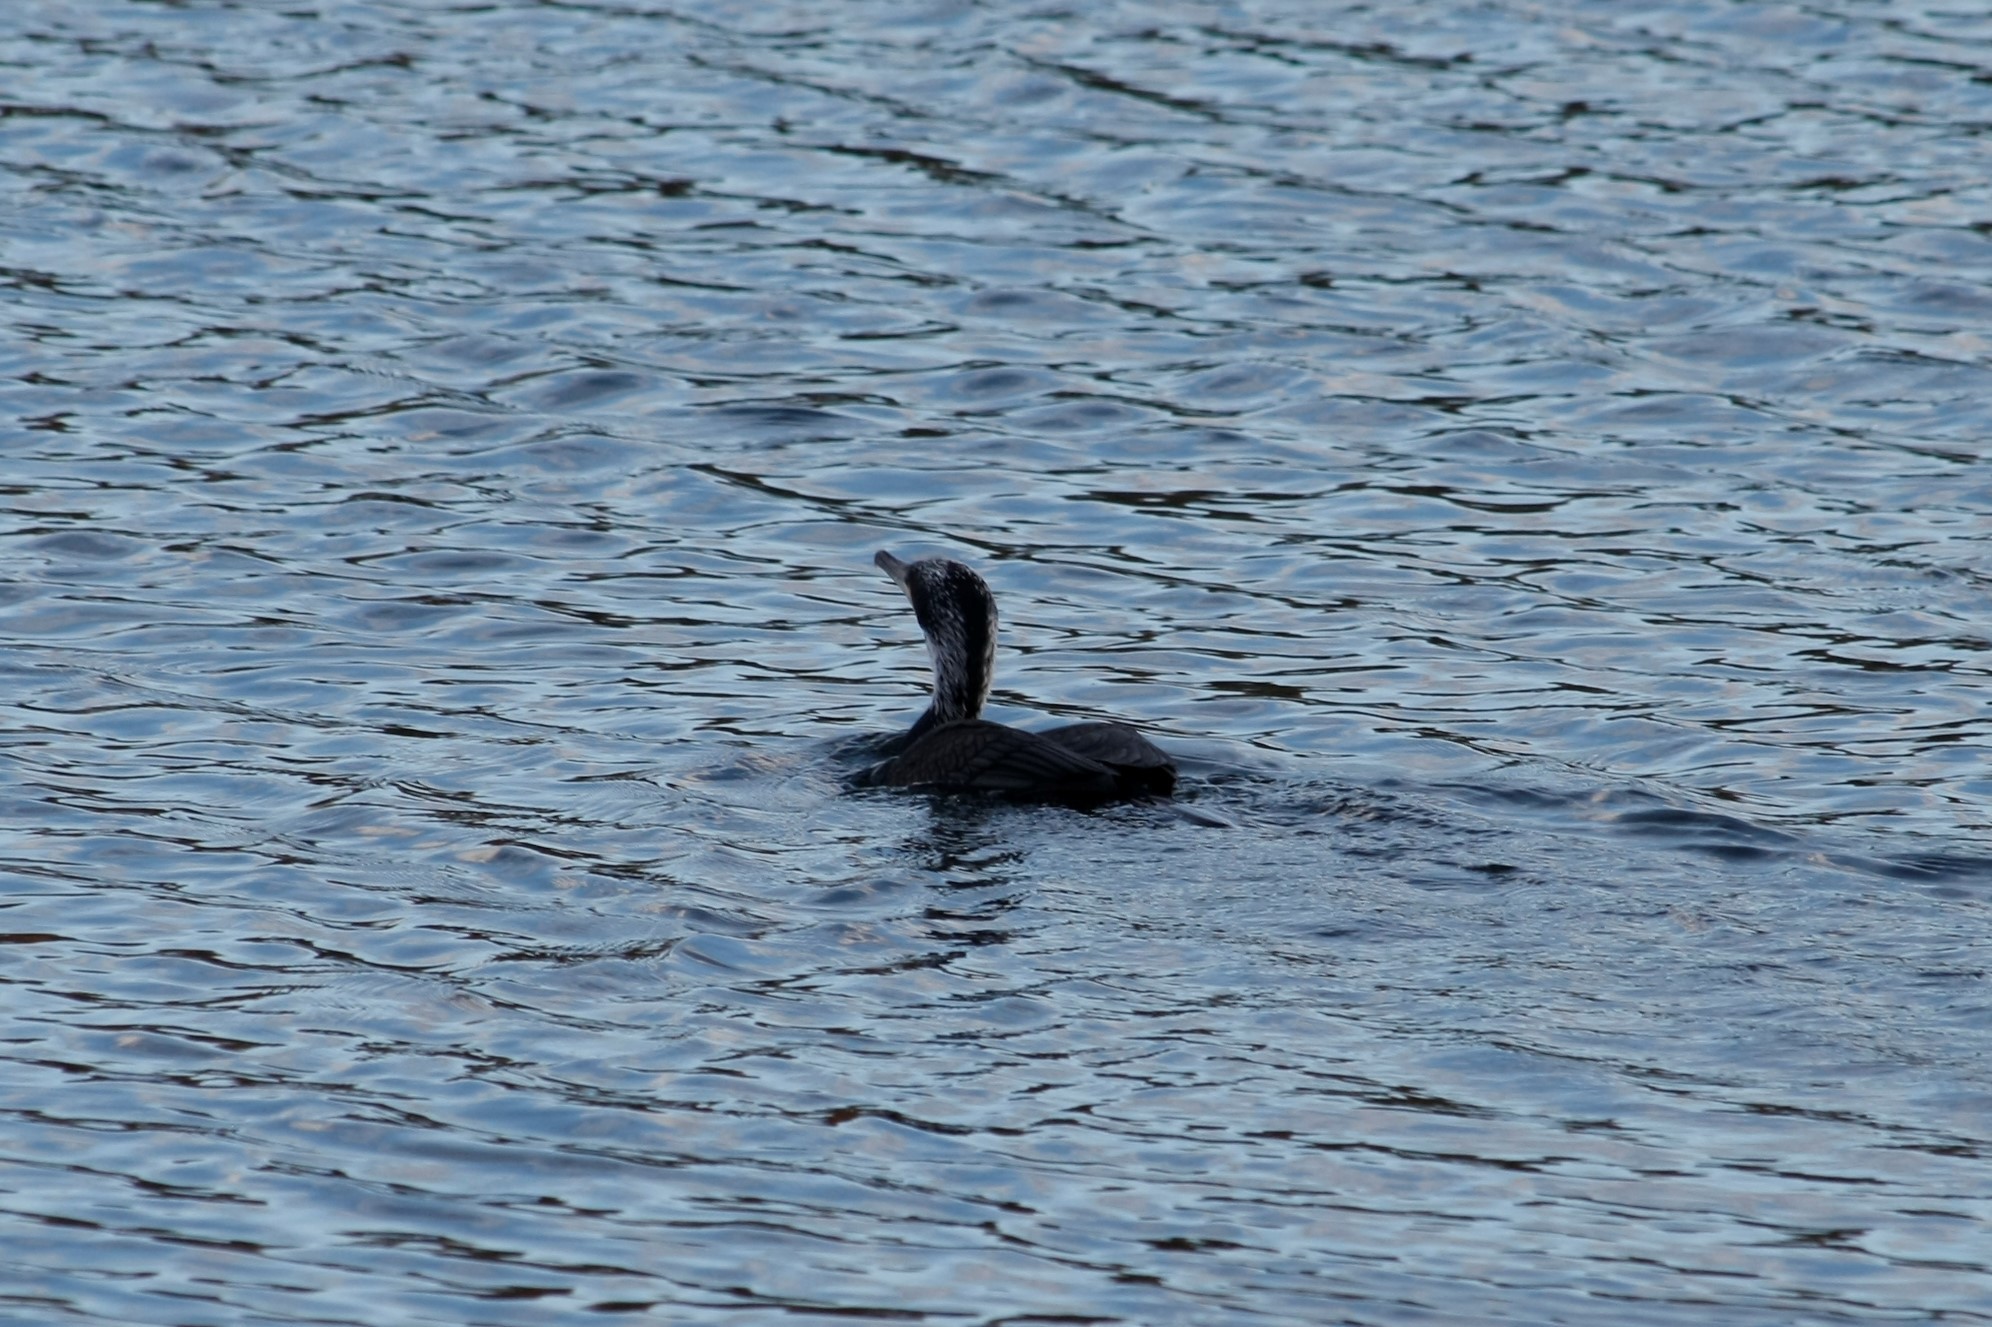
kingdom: Animalia
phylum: Chordata
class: Aves
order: Suliformes
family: Phalacrocoracidae
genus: Phalacrocorax
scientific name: Phalacrocorax carbo
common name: Great cormorant
